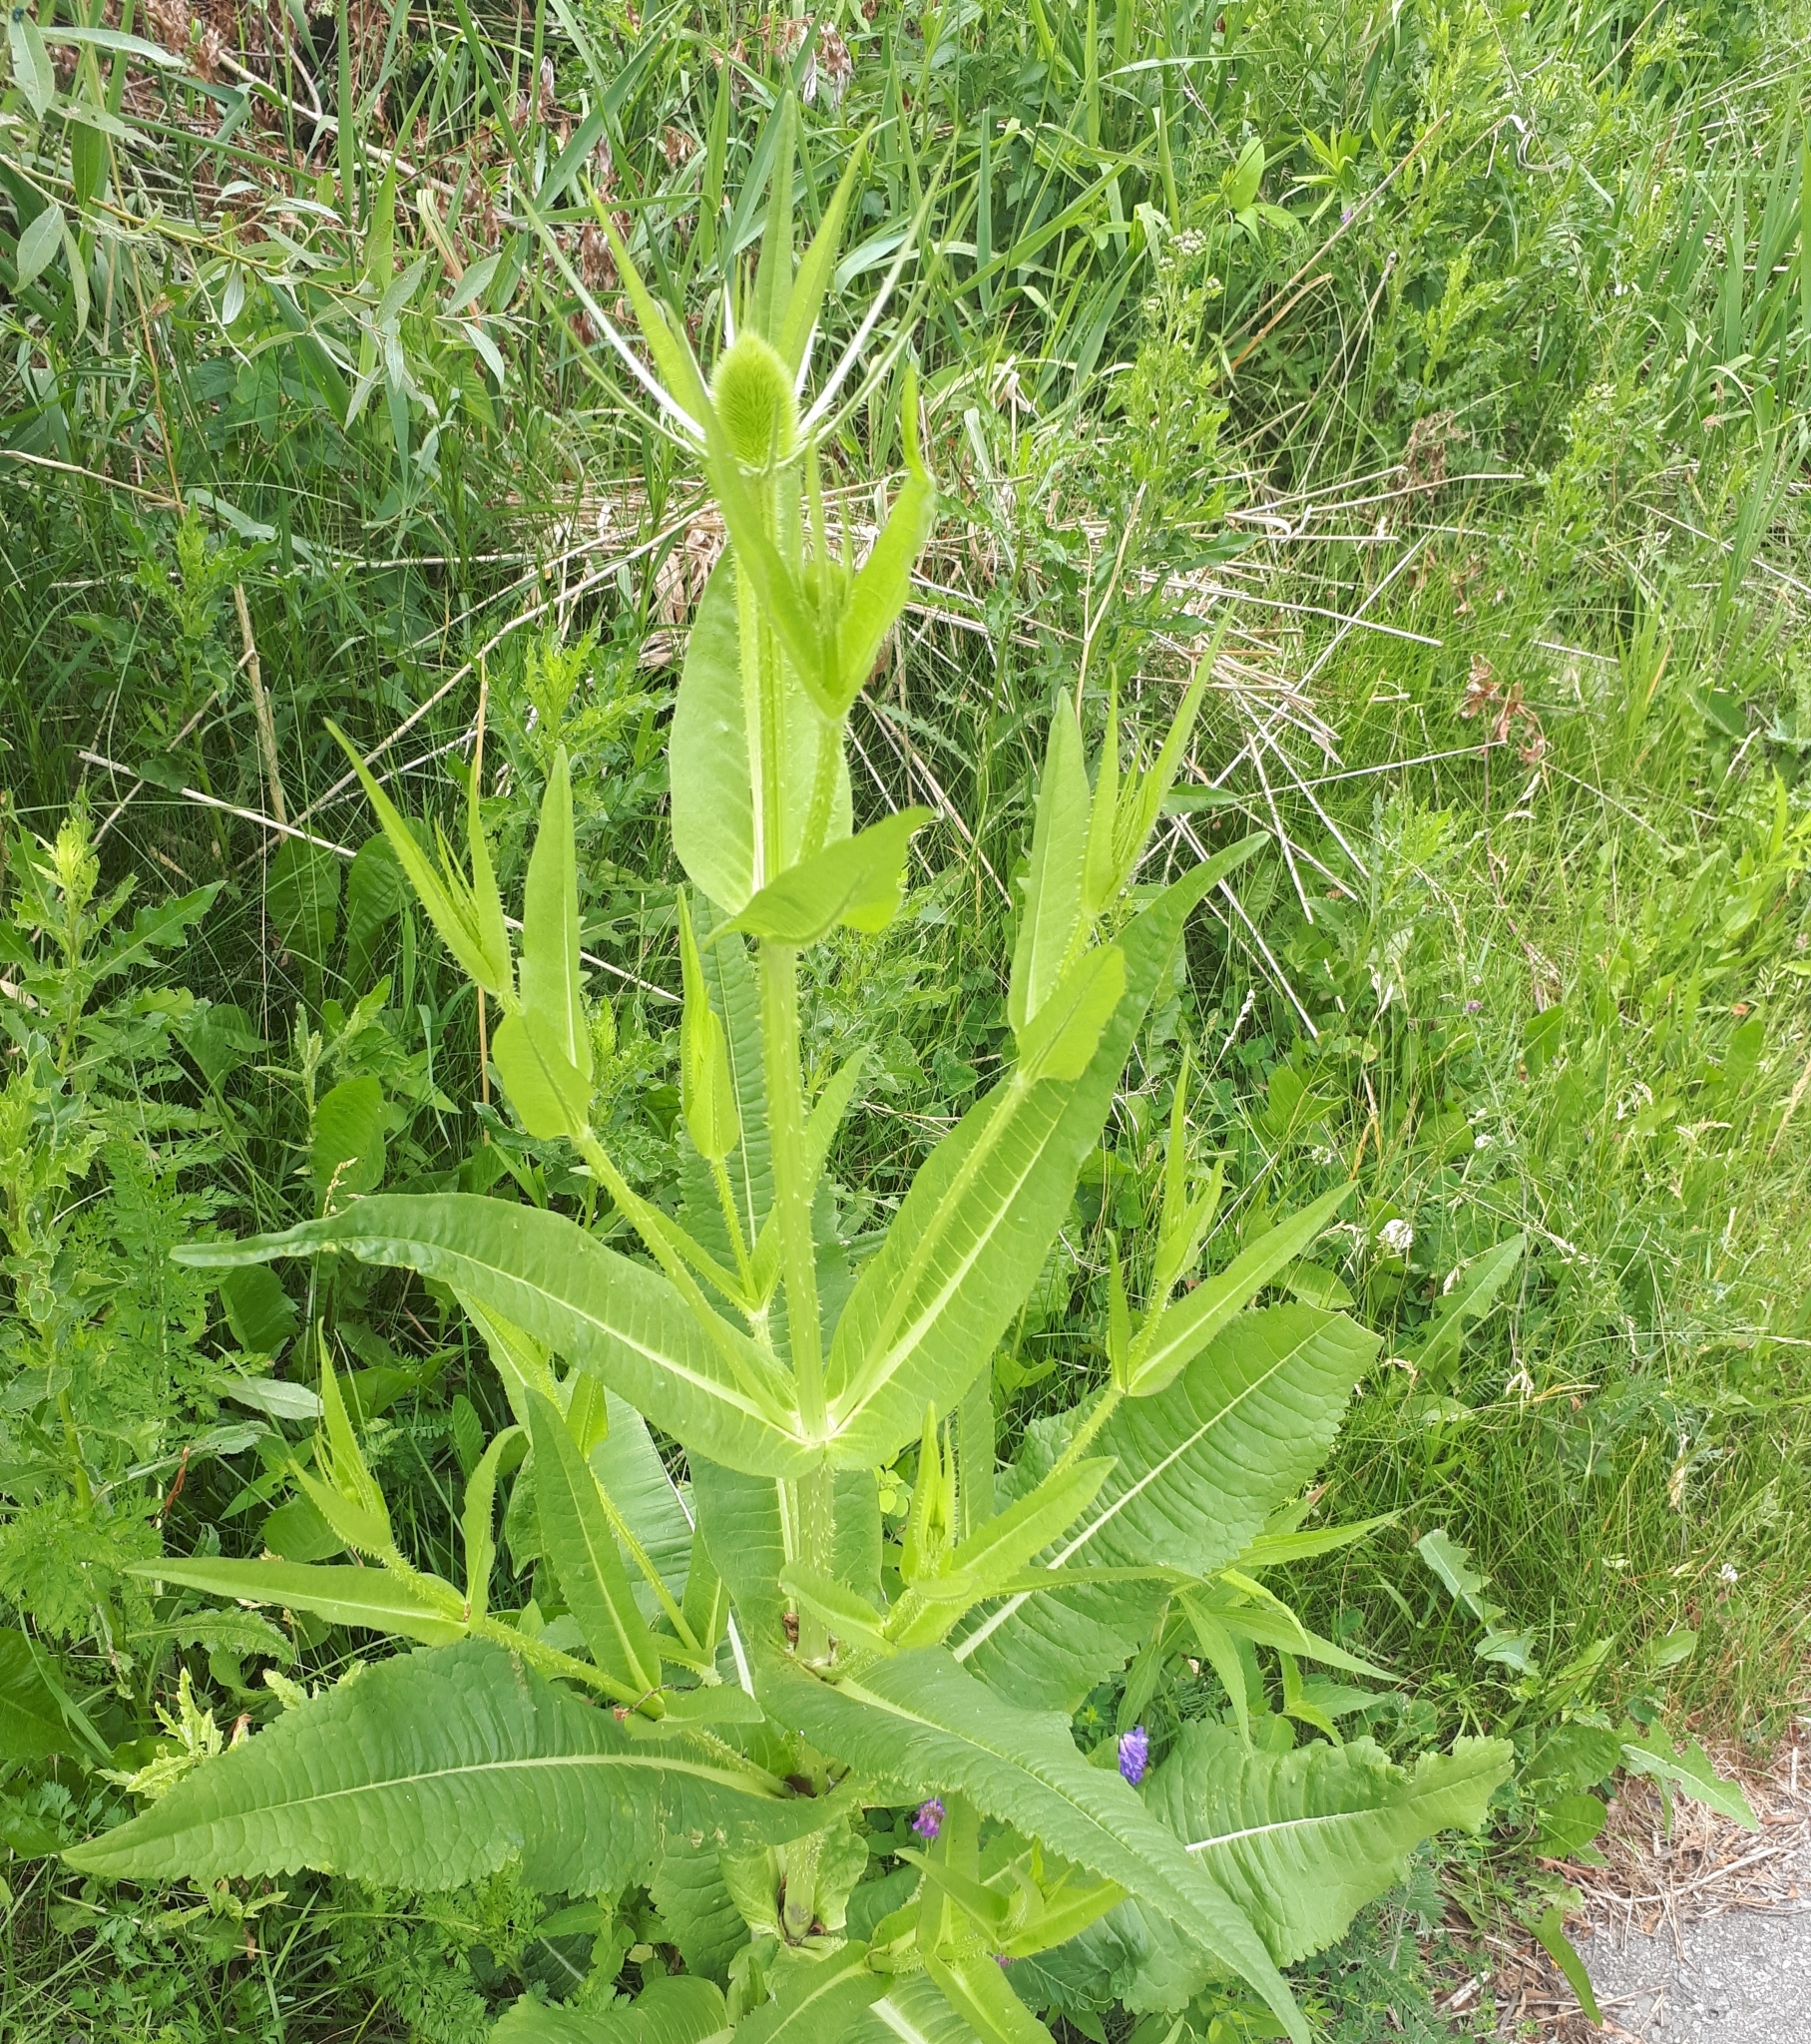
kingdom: Plantae
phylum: Tracheophyta
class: Magnoliopsida
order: Dipsacales
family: Caprifoliaceae
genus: Dipsacus
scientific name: Dipsacus fullonum
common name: Teasel
